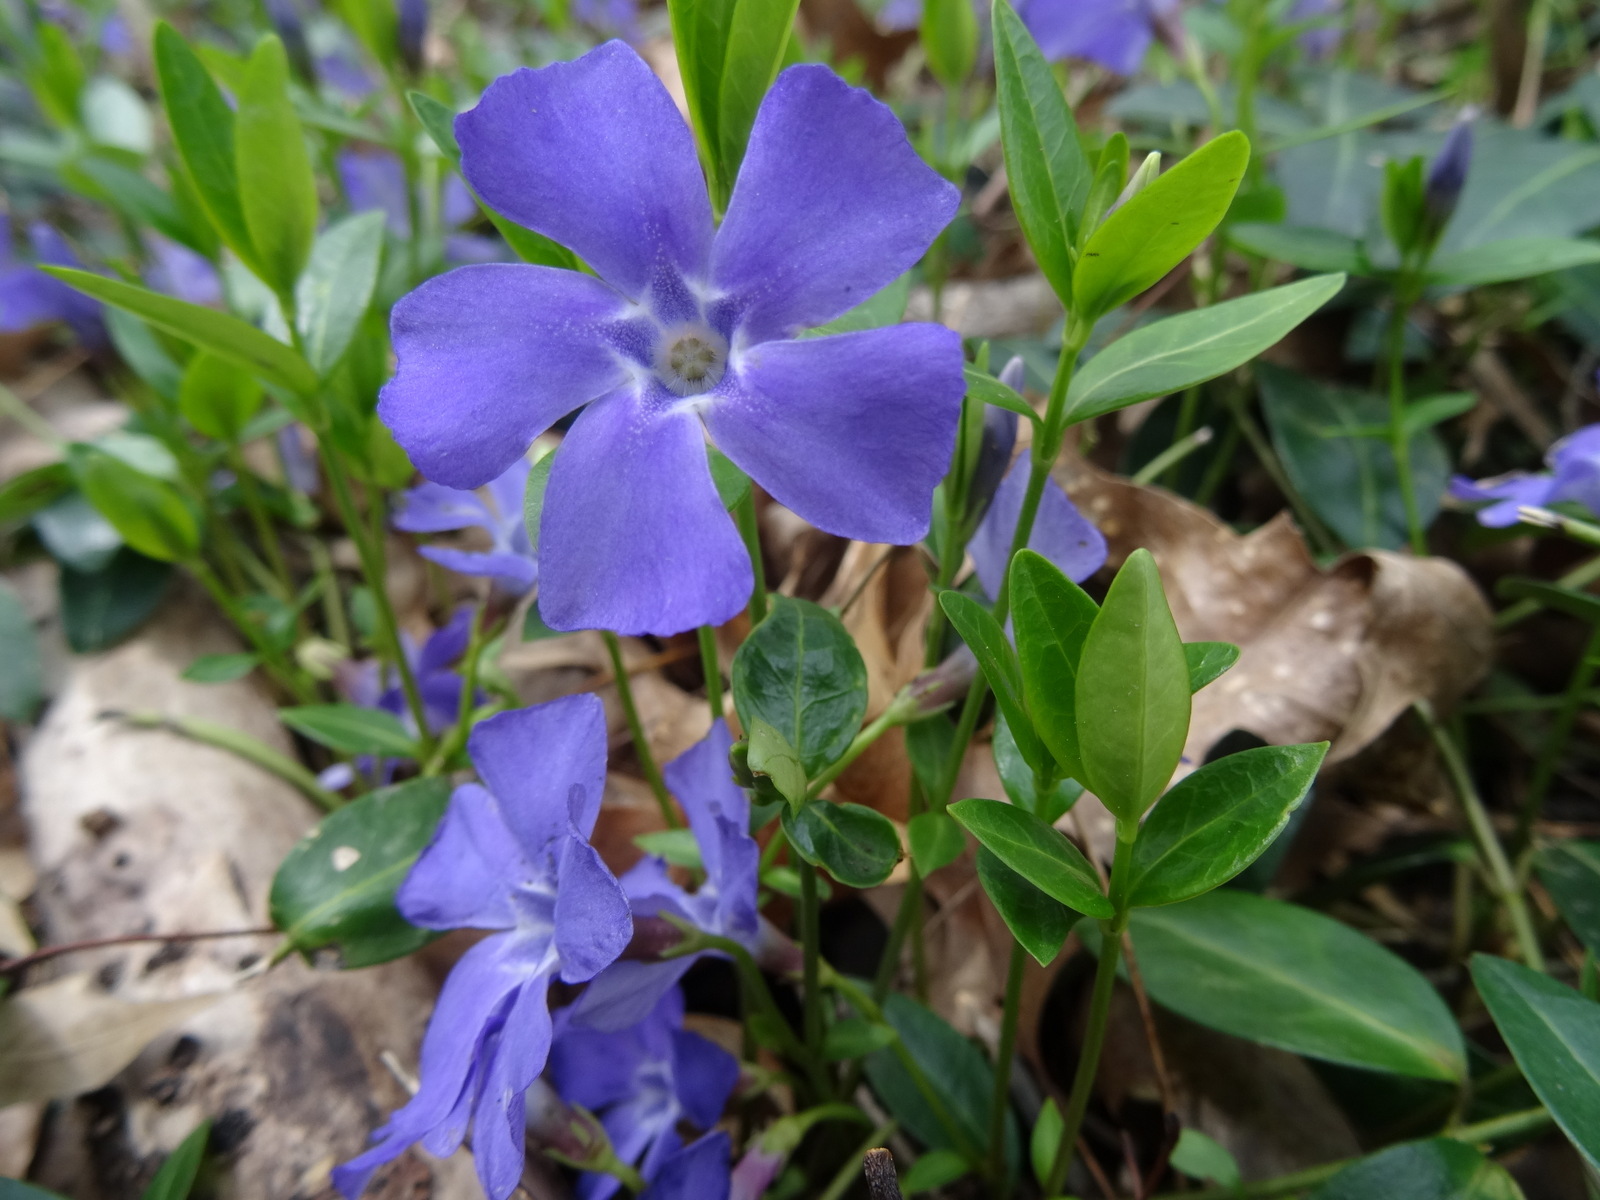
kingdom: Plantae
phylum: Tracheophyta
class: Magnoliopsida
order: Gentianales
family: Apocynaceae
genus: Vinca
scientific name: Vinca minor
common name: Lesser periwinkle
